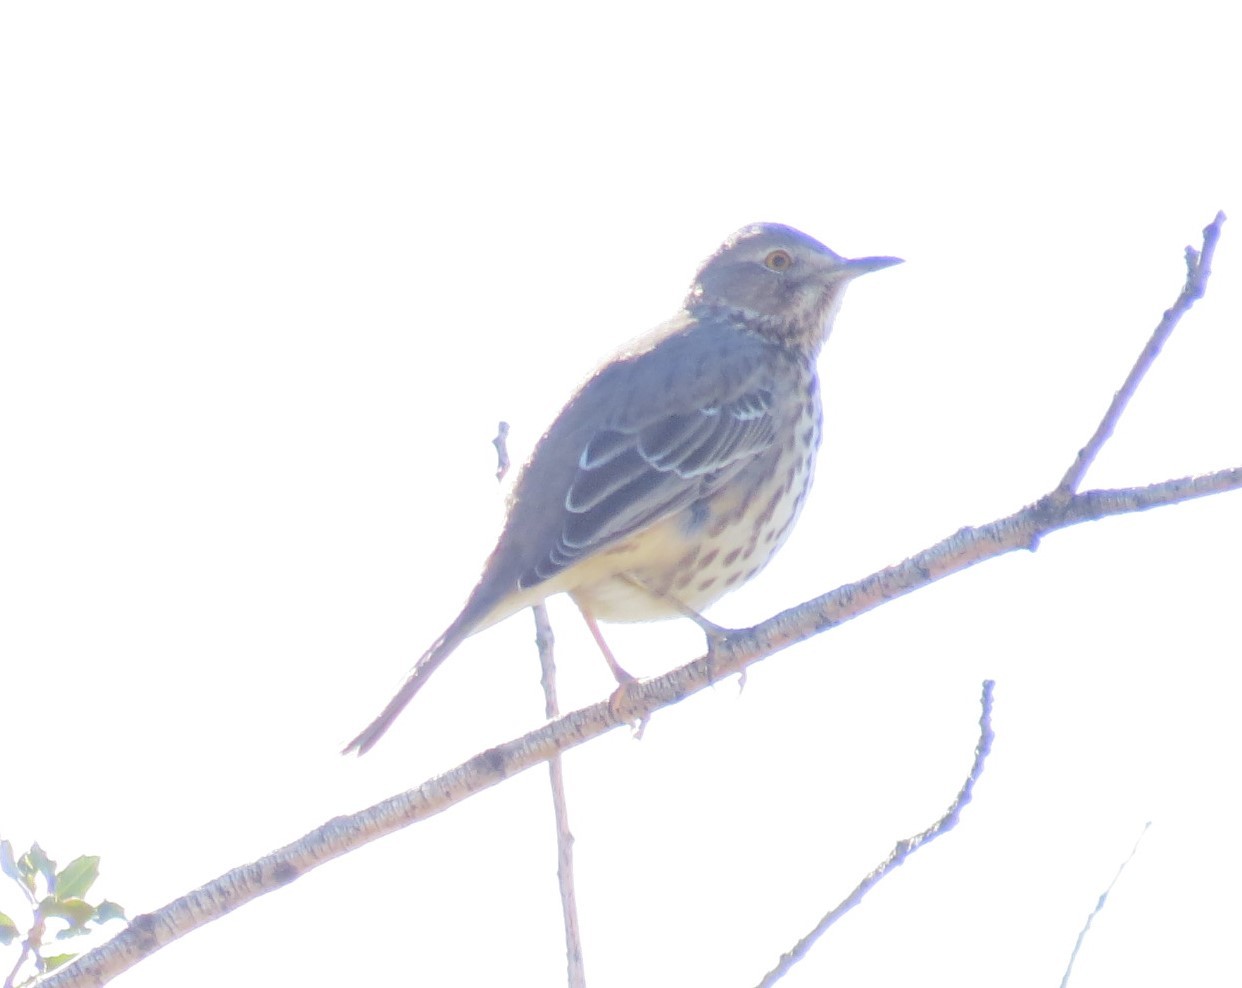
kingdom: Animalia
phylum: Chordata
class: Aves
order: Passeriformes
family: Mimidae
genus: Oreoscoptes
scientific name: Oreoscoptes montanus
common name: Sage thrasher
